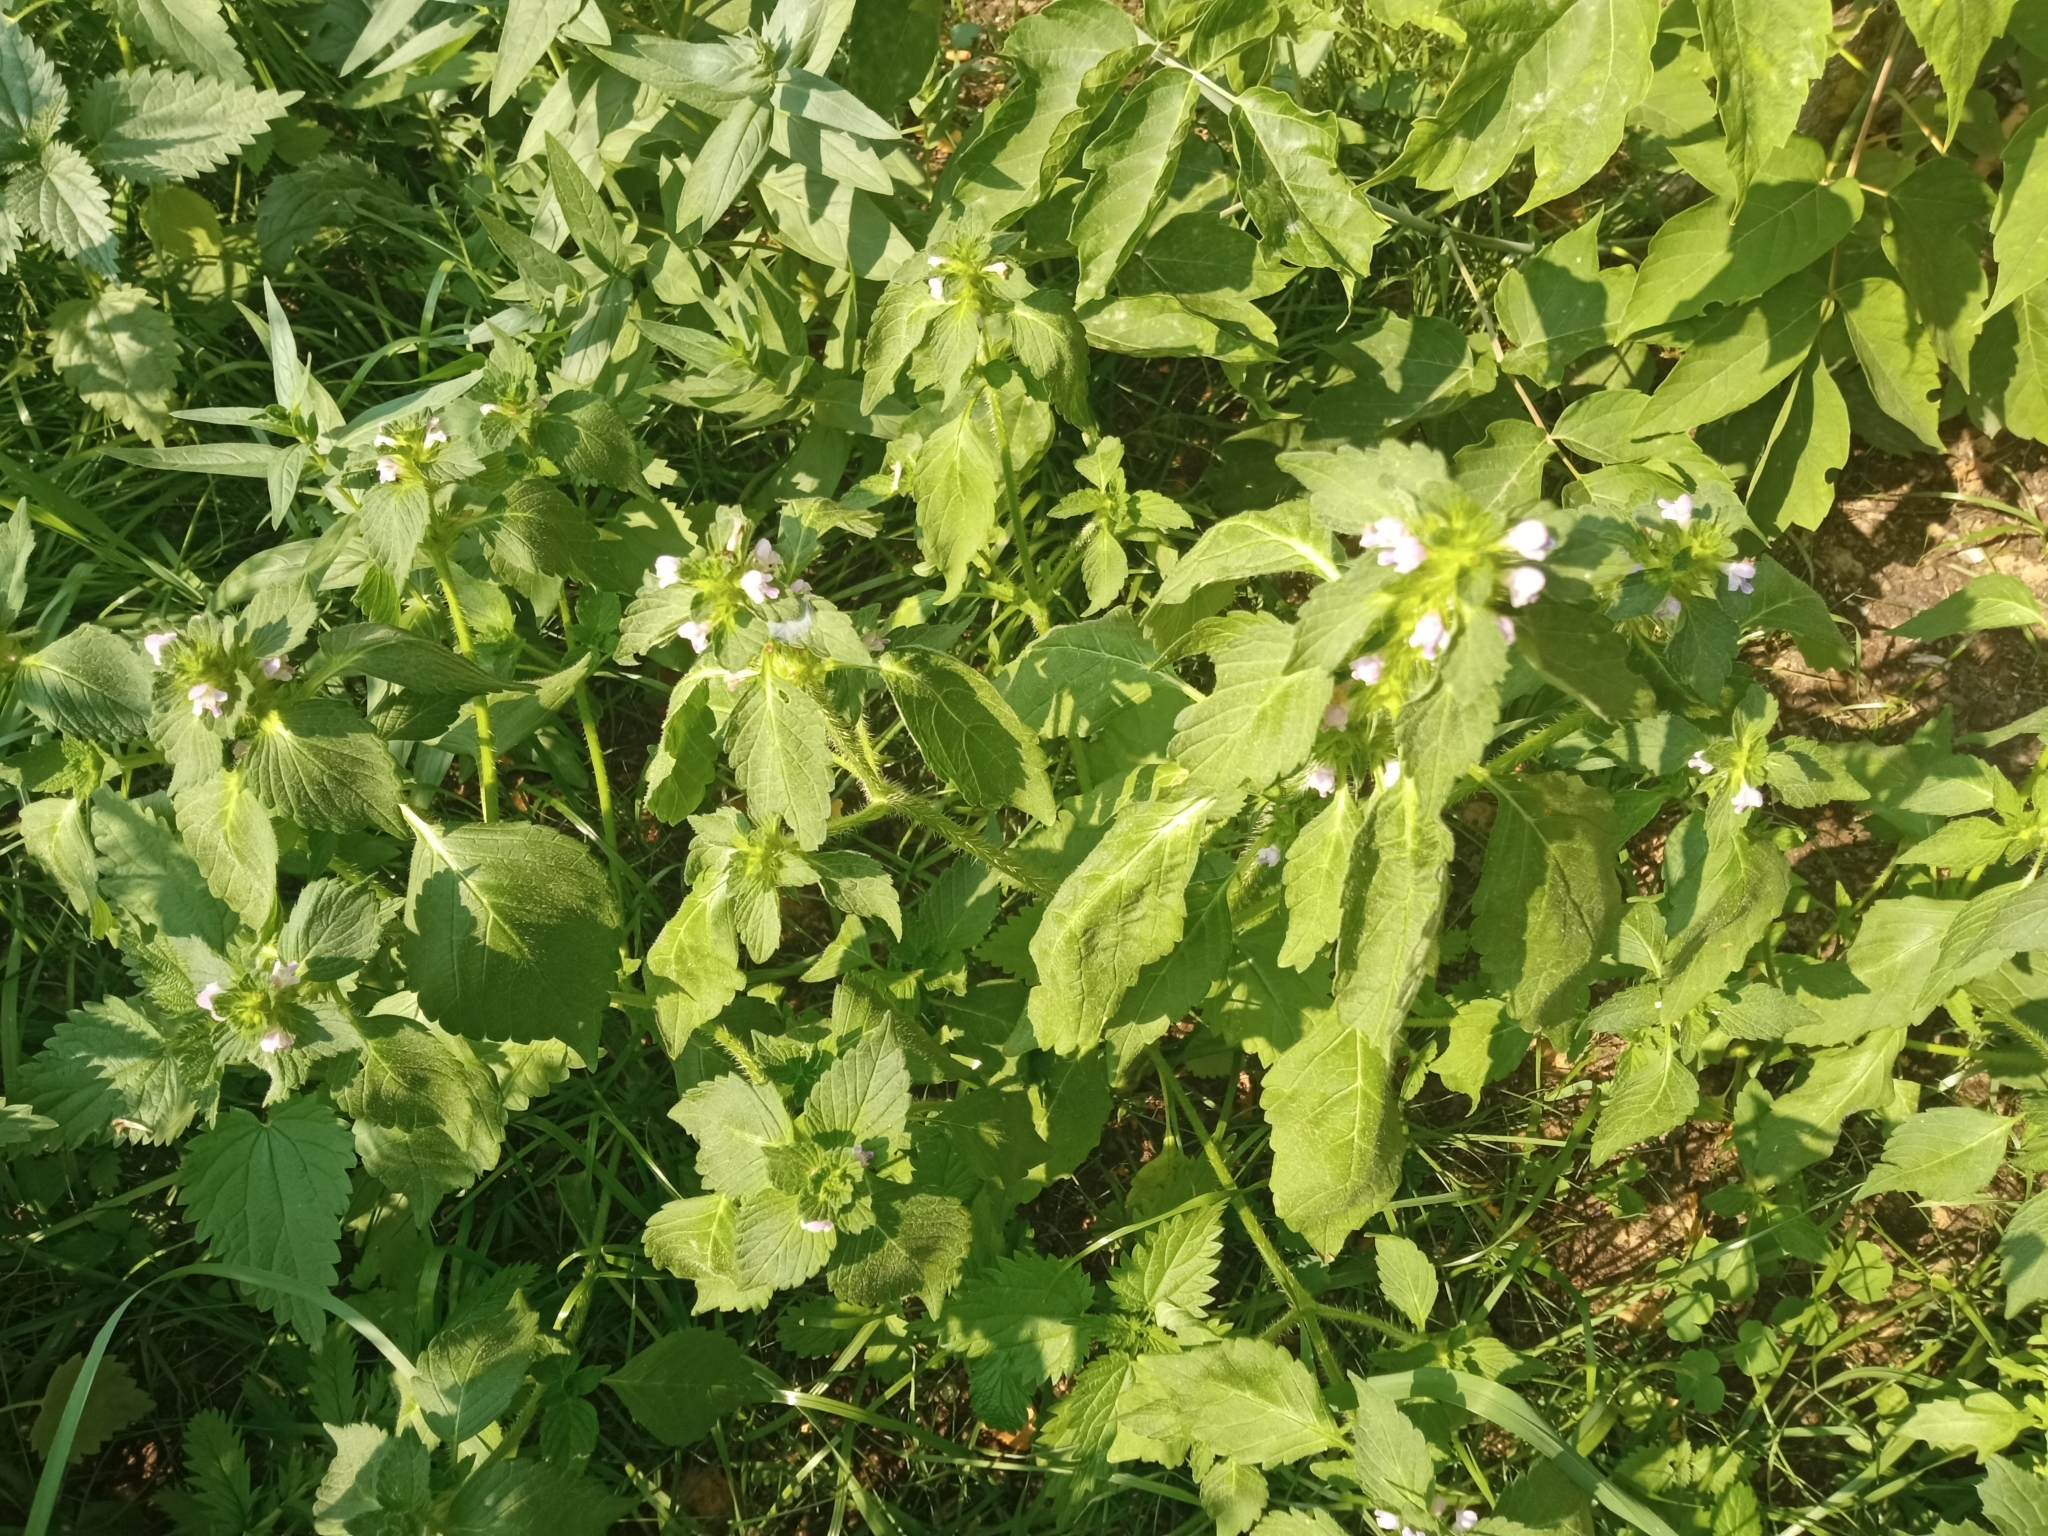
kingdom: Plantae
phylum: Tracheophyta
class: Magnoliopsida
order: Lamiales
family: Lamiaceae
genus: Galeopsis
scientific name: Galeopsis bifida
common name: Bifid hemp-nettle
